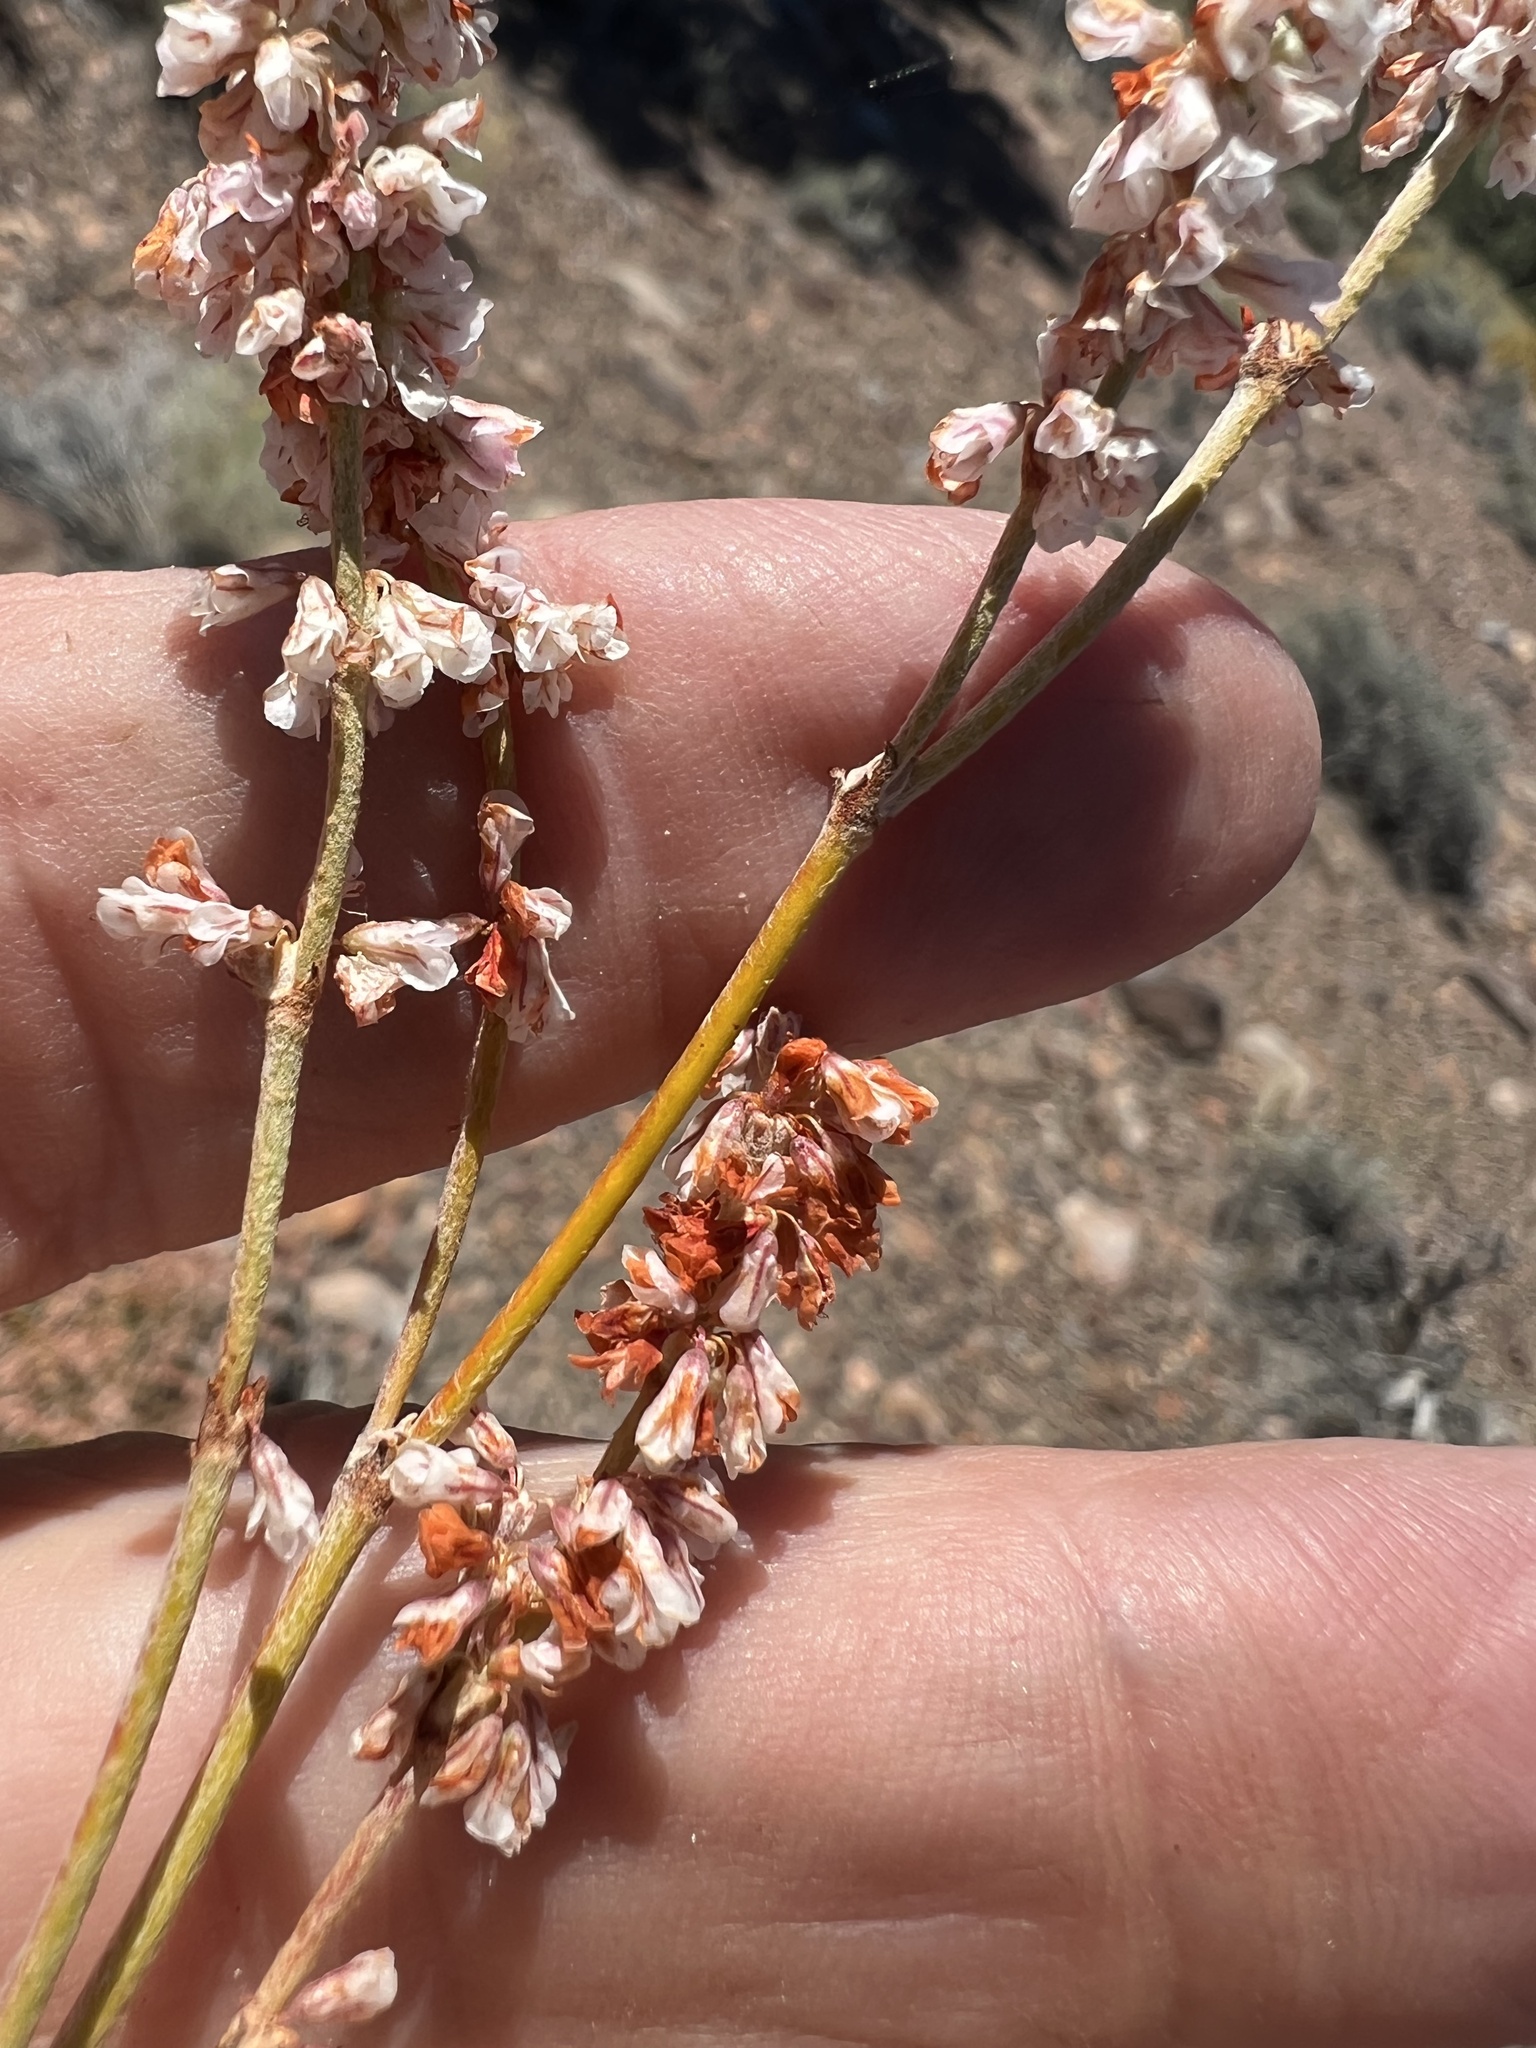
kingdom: Plantae
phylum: Tracheophyta
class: Magnoliopsida
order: Caryophyllales
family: Polygonaceae
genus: Eriogonum
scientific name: Eriogonum wrightii
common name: Bastard-sage
